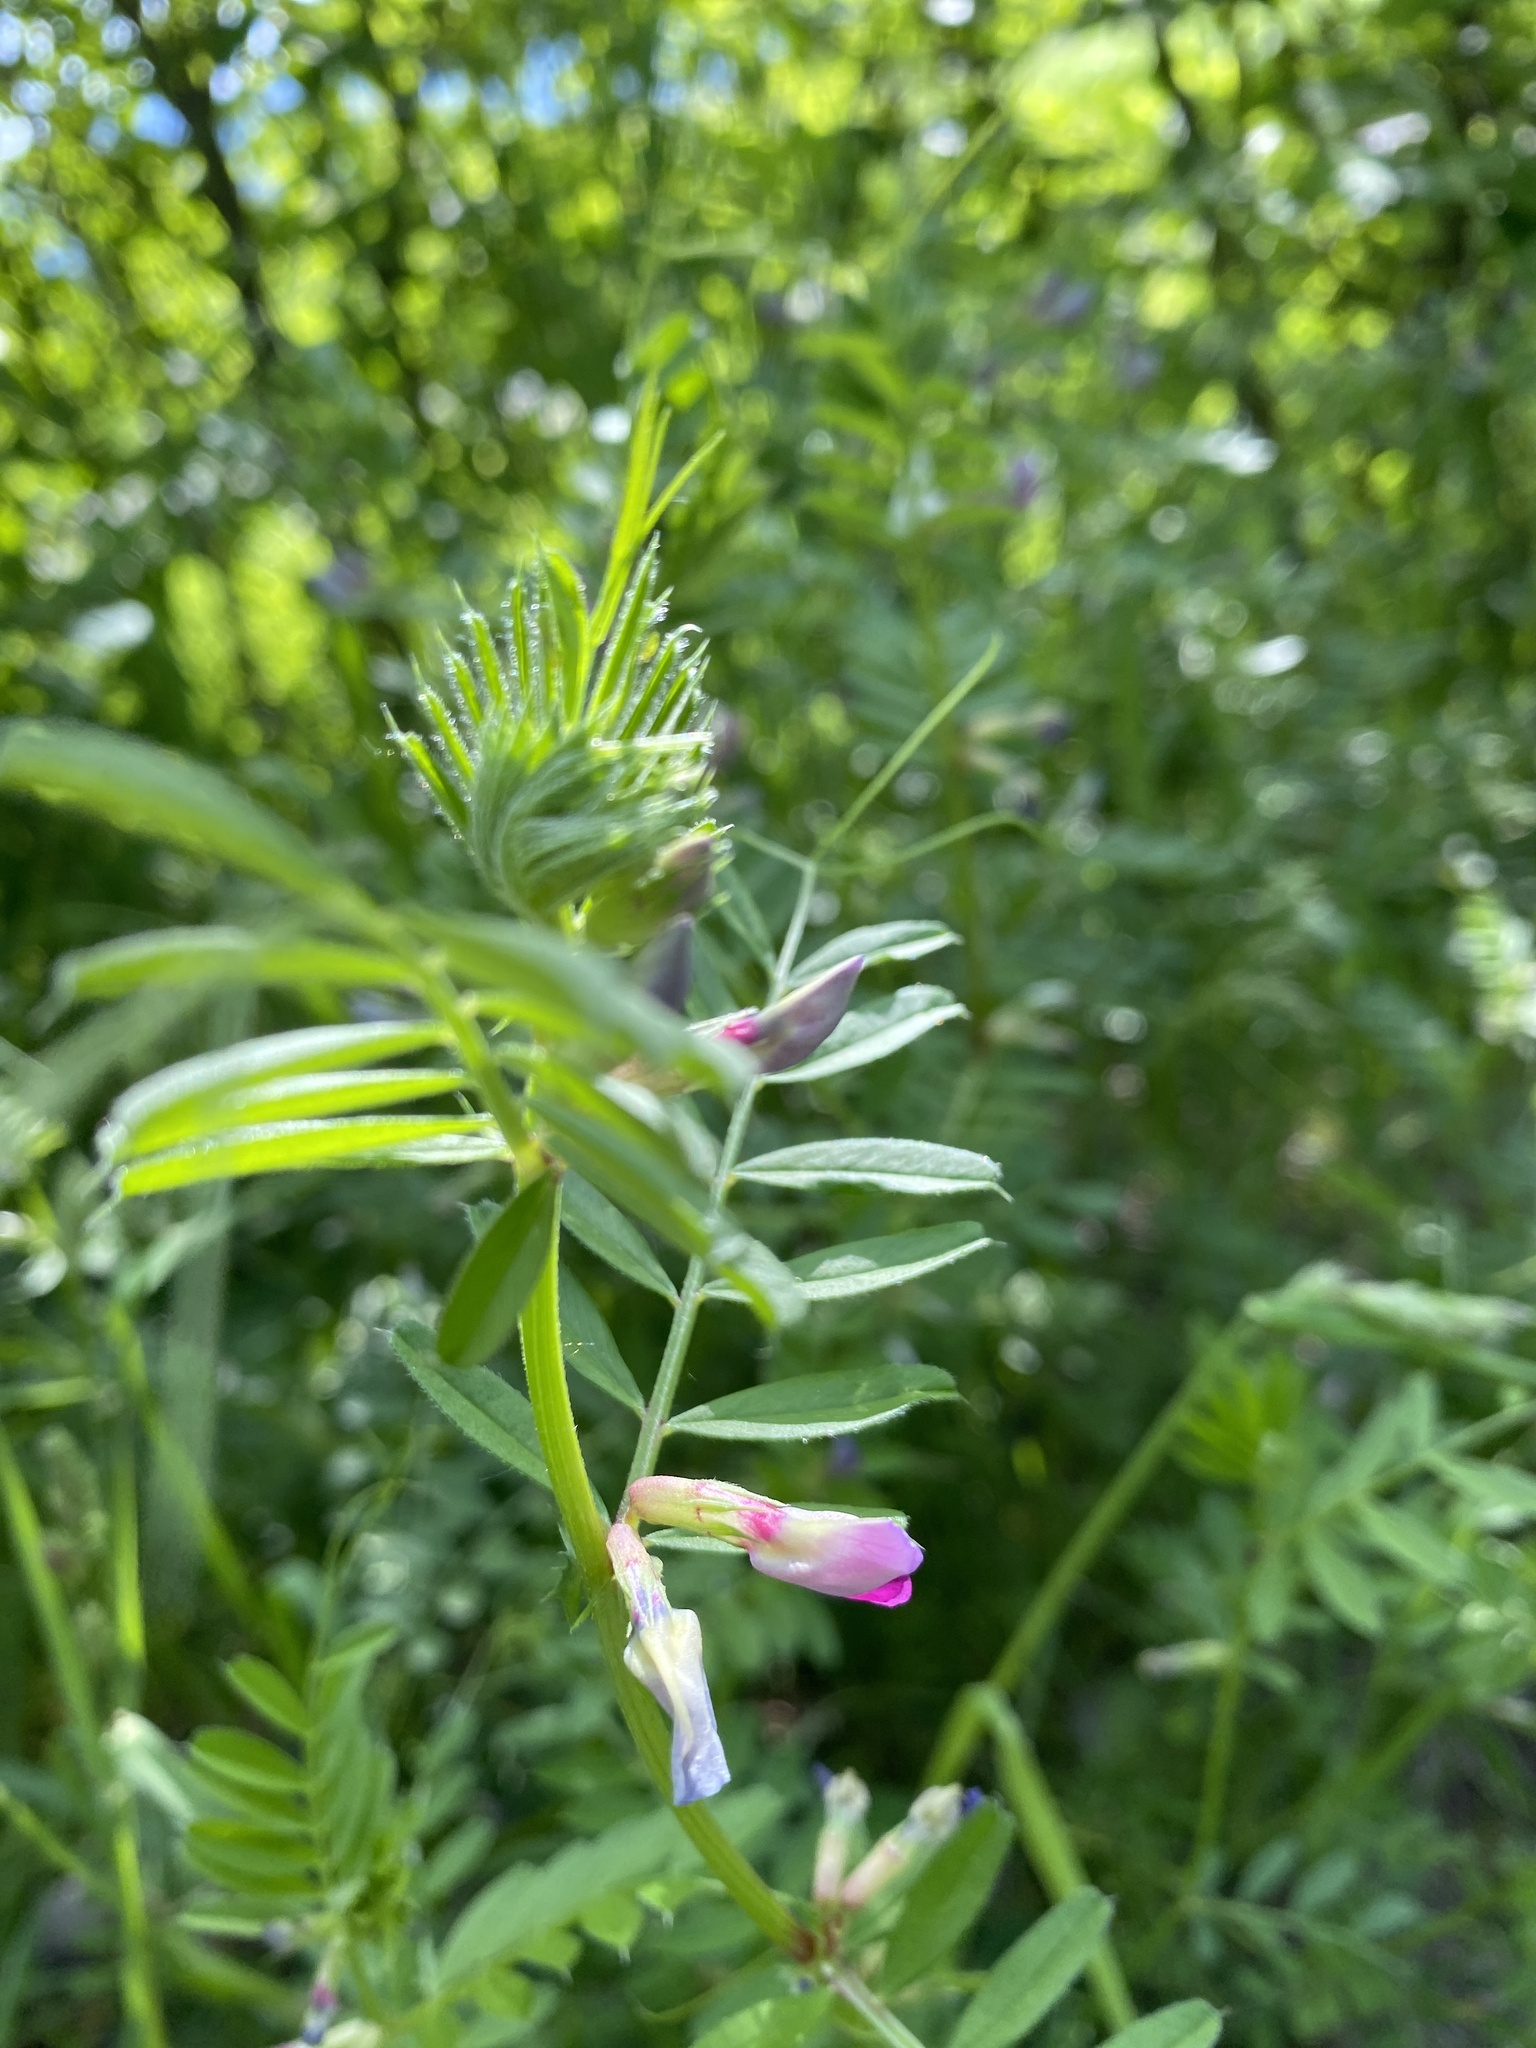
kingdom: Plantae
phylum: Tracheophyta
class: Magnoliopsida
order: Fabales
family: Fabaceae
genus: Vicia
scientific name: Vicia sativa
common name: Garden vetch
